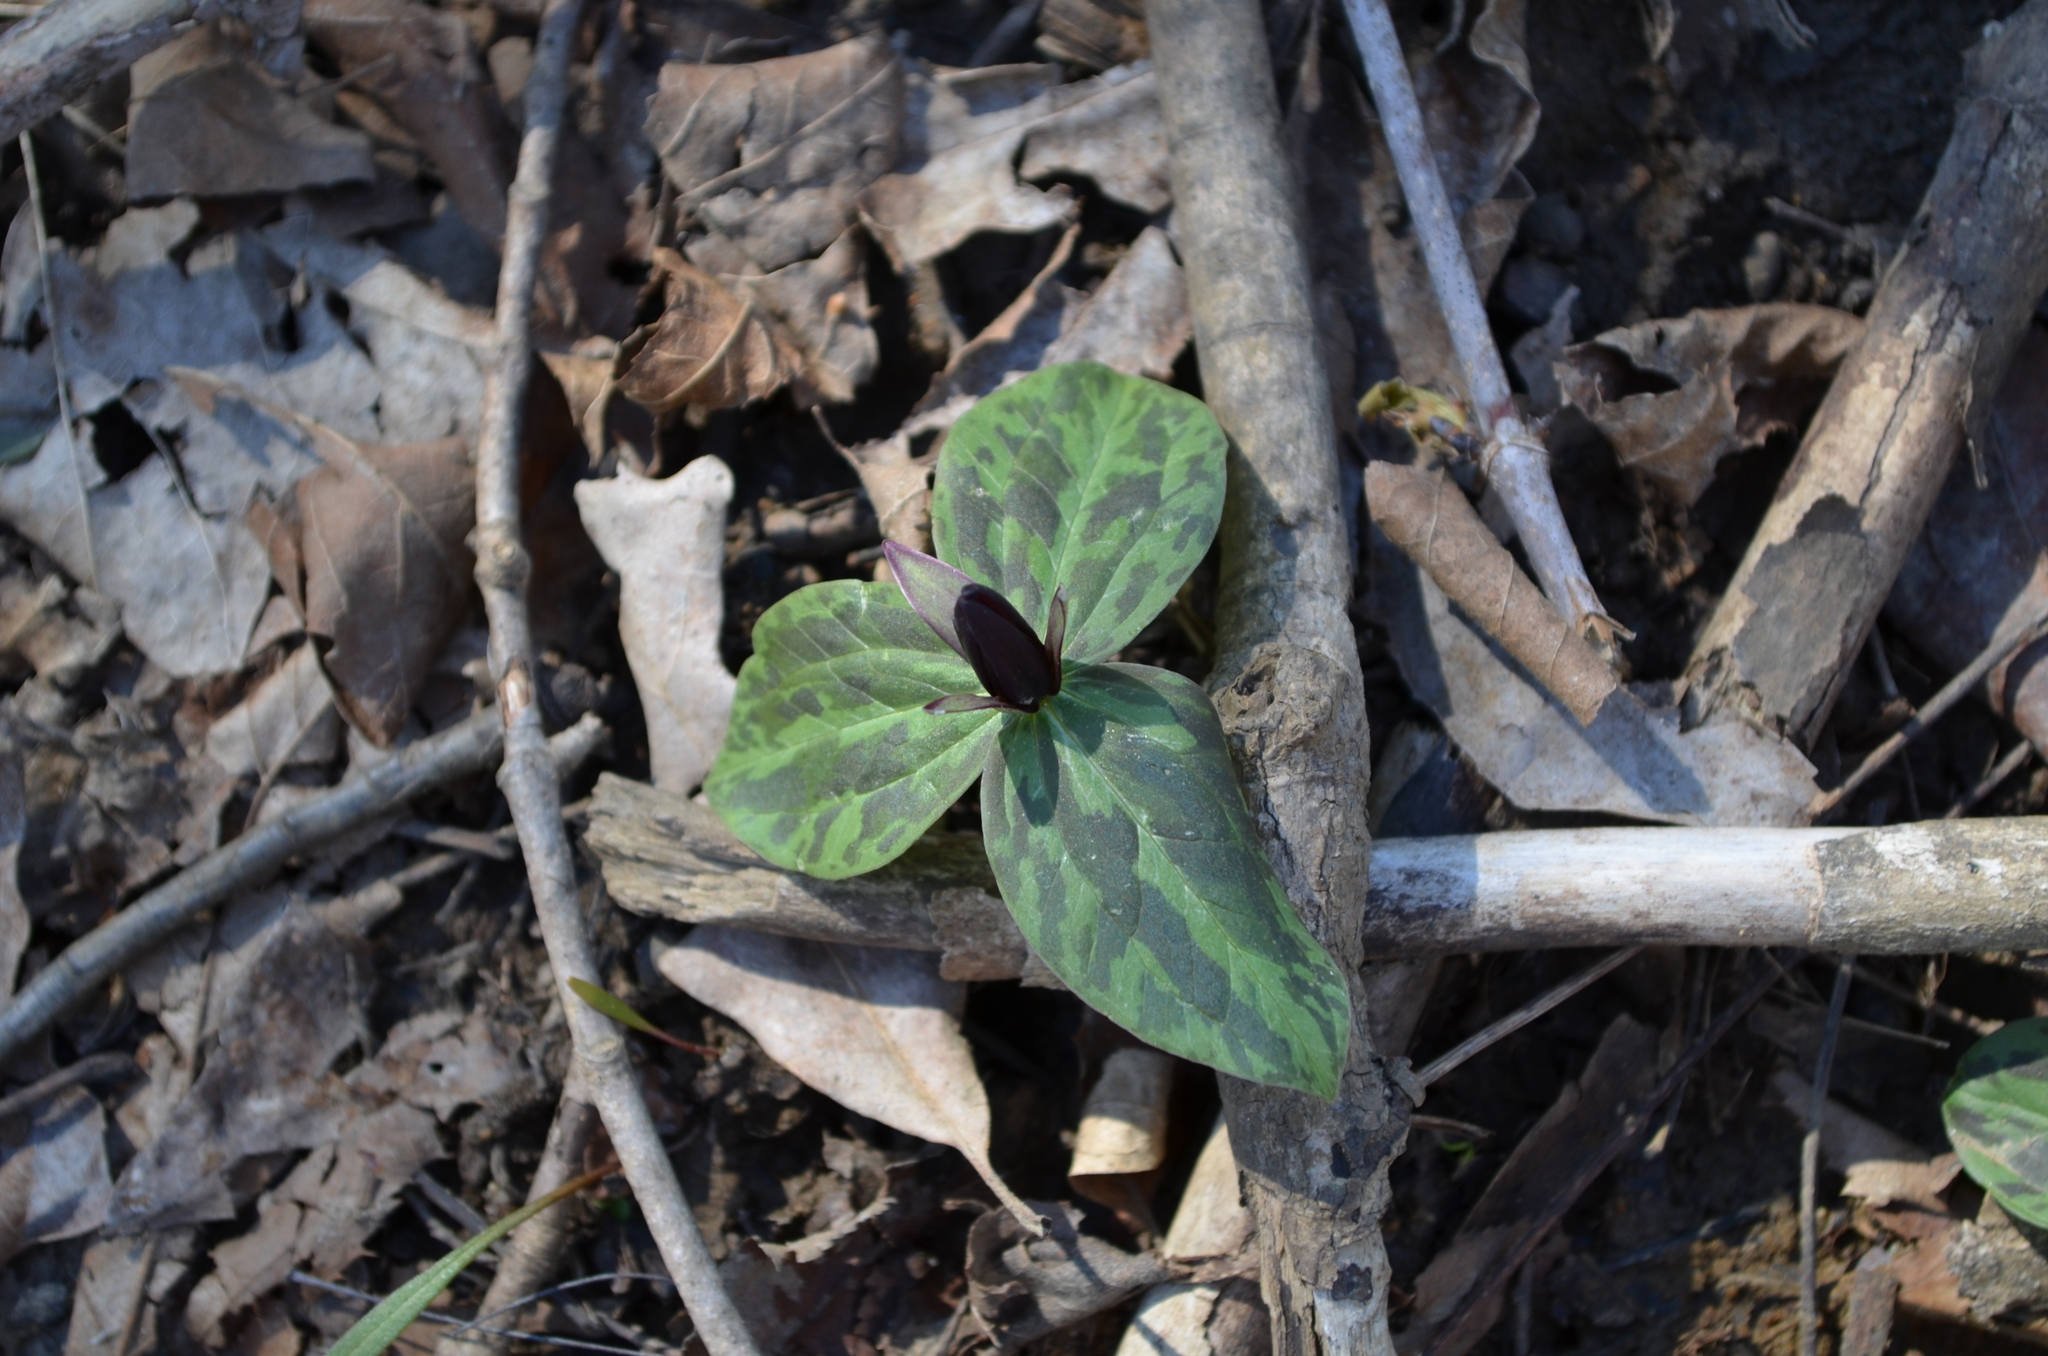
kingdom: Plantae
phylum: Tracheophyta
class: Liliopsida
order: Liliales
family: Melanthiaceae
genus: Trillium
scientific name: Trillium sessile
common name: Sessile trillium
